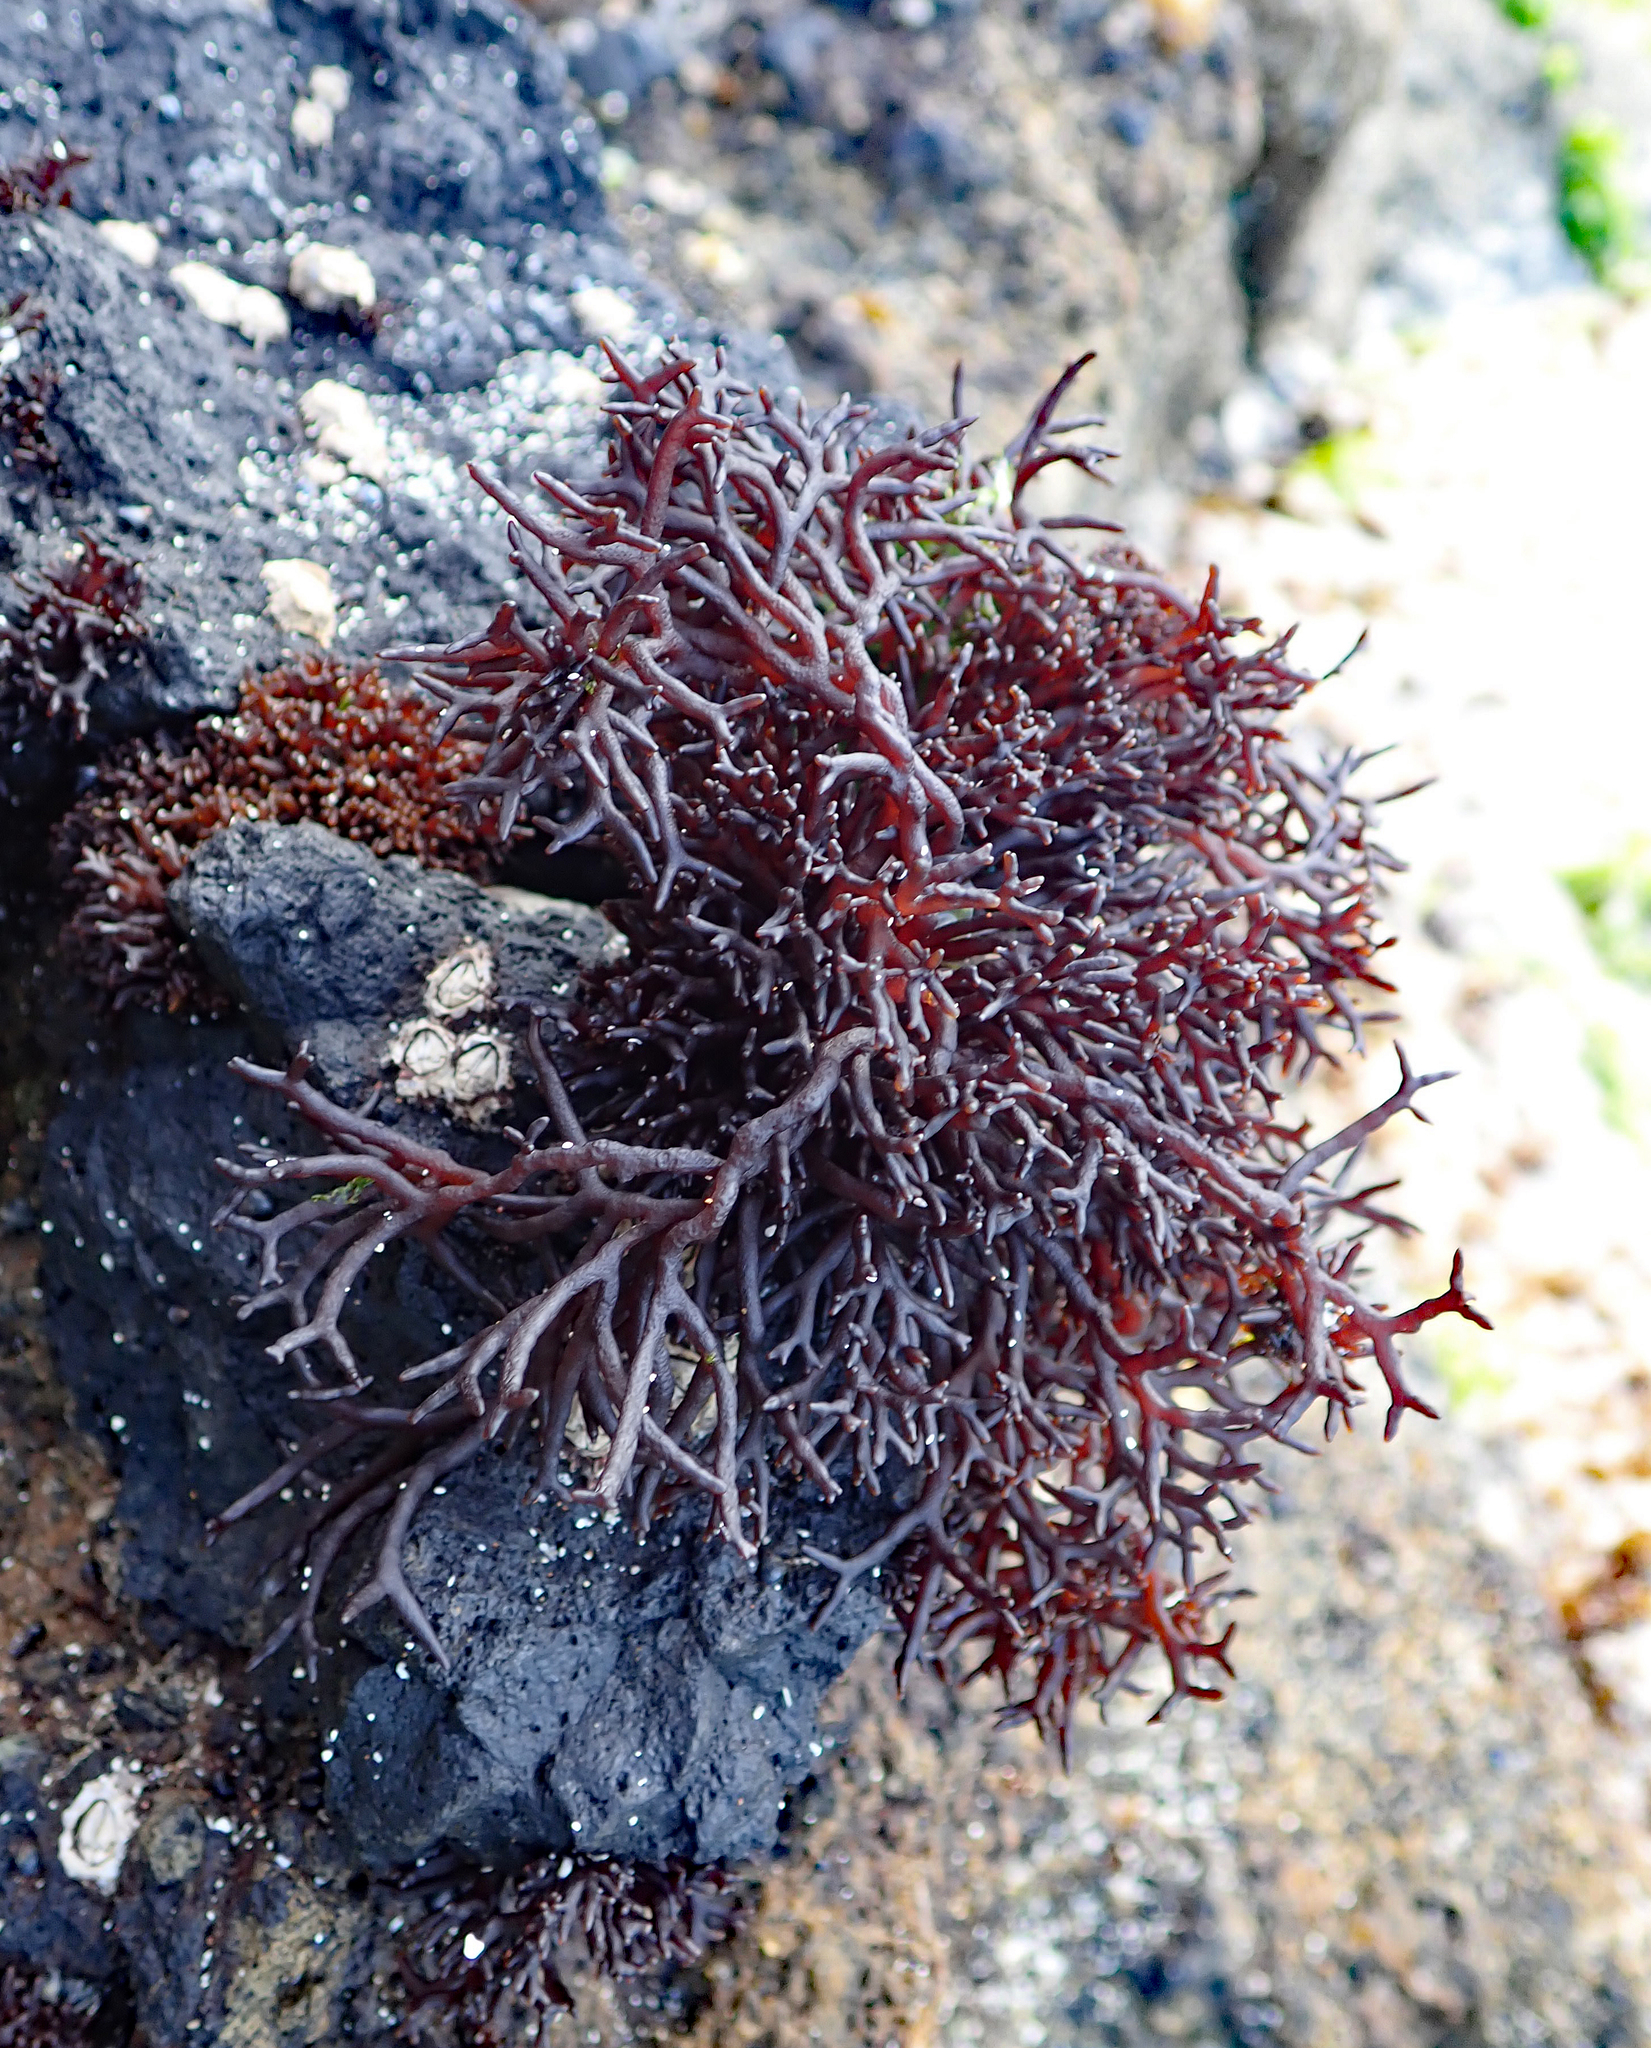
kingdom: Plantae
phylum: Rhodophyta
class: Florideophyceae
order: Hildenbrandiales
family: Hildenbrandiaceae
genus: Apophlaea
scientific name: Apophlaea lyallii
